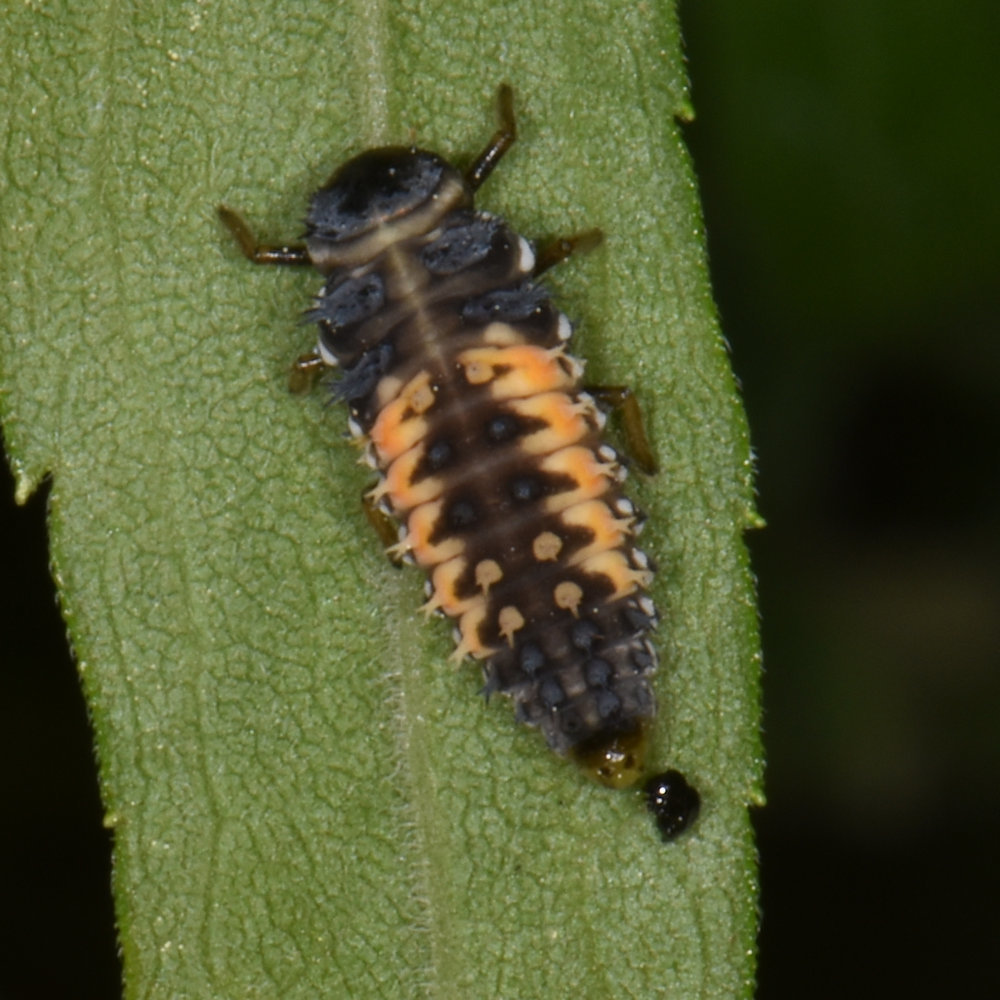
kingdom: Animalia
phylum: Arthropoda
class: Insecta
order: Coleoptera
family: Coccinellidae
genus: Harmonia
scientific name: Harmonia axyridis
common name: Harlequin ladybird
